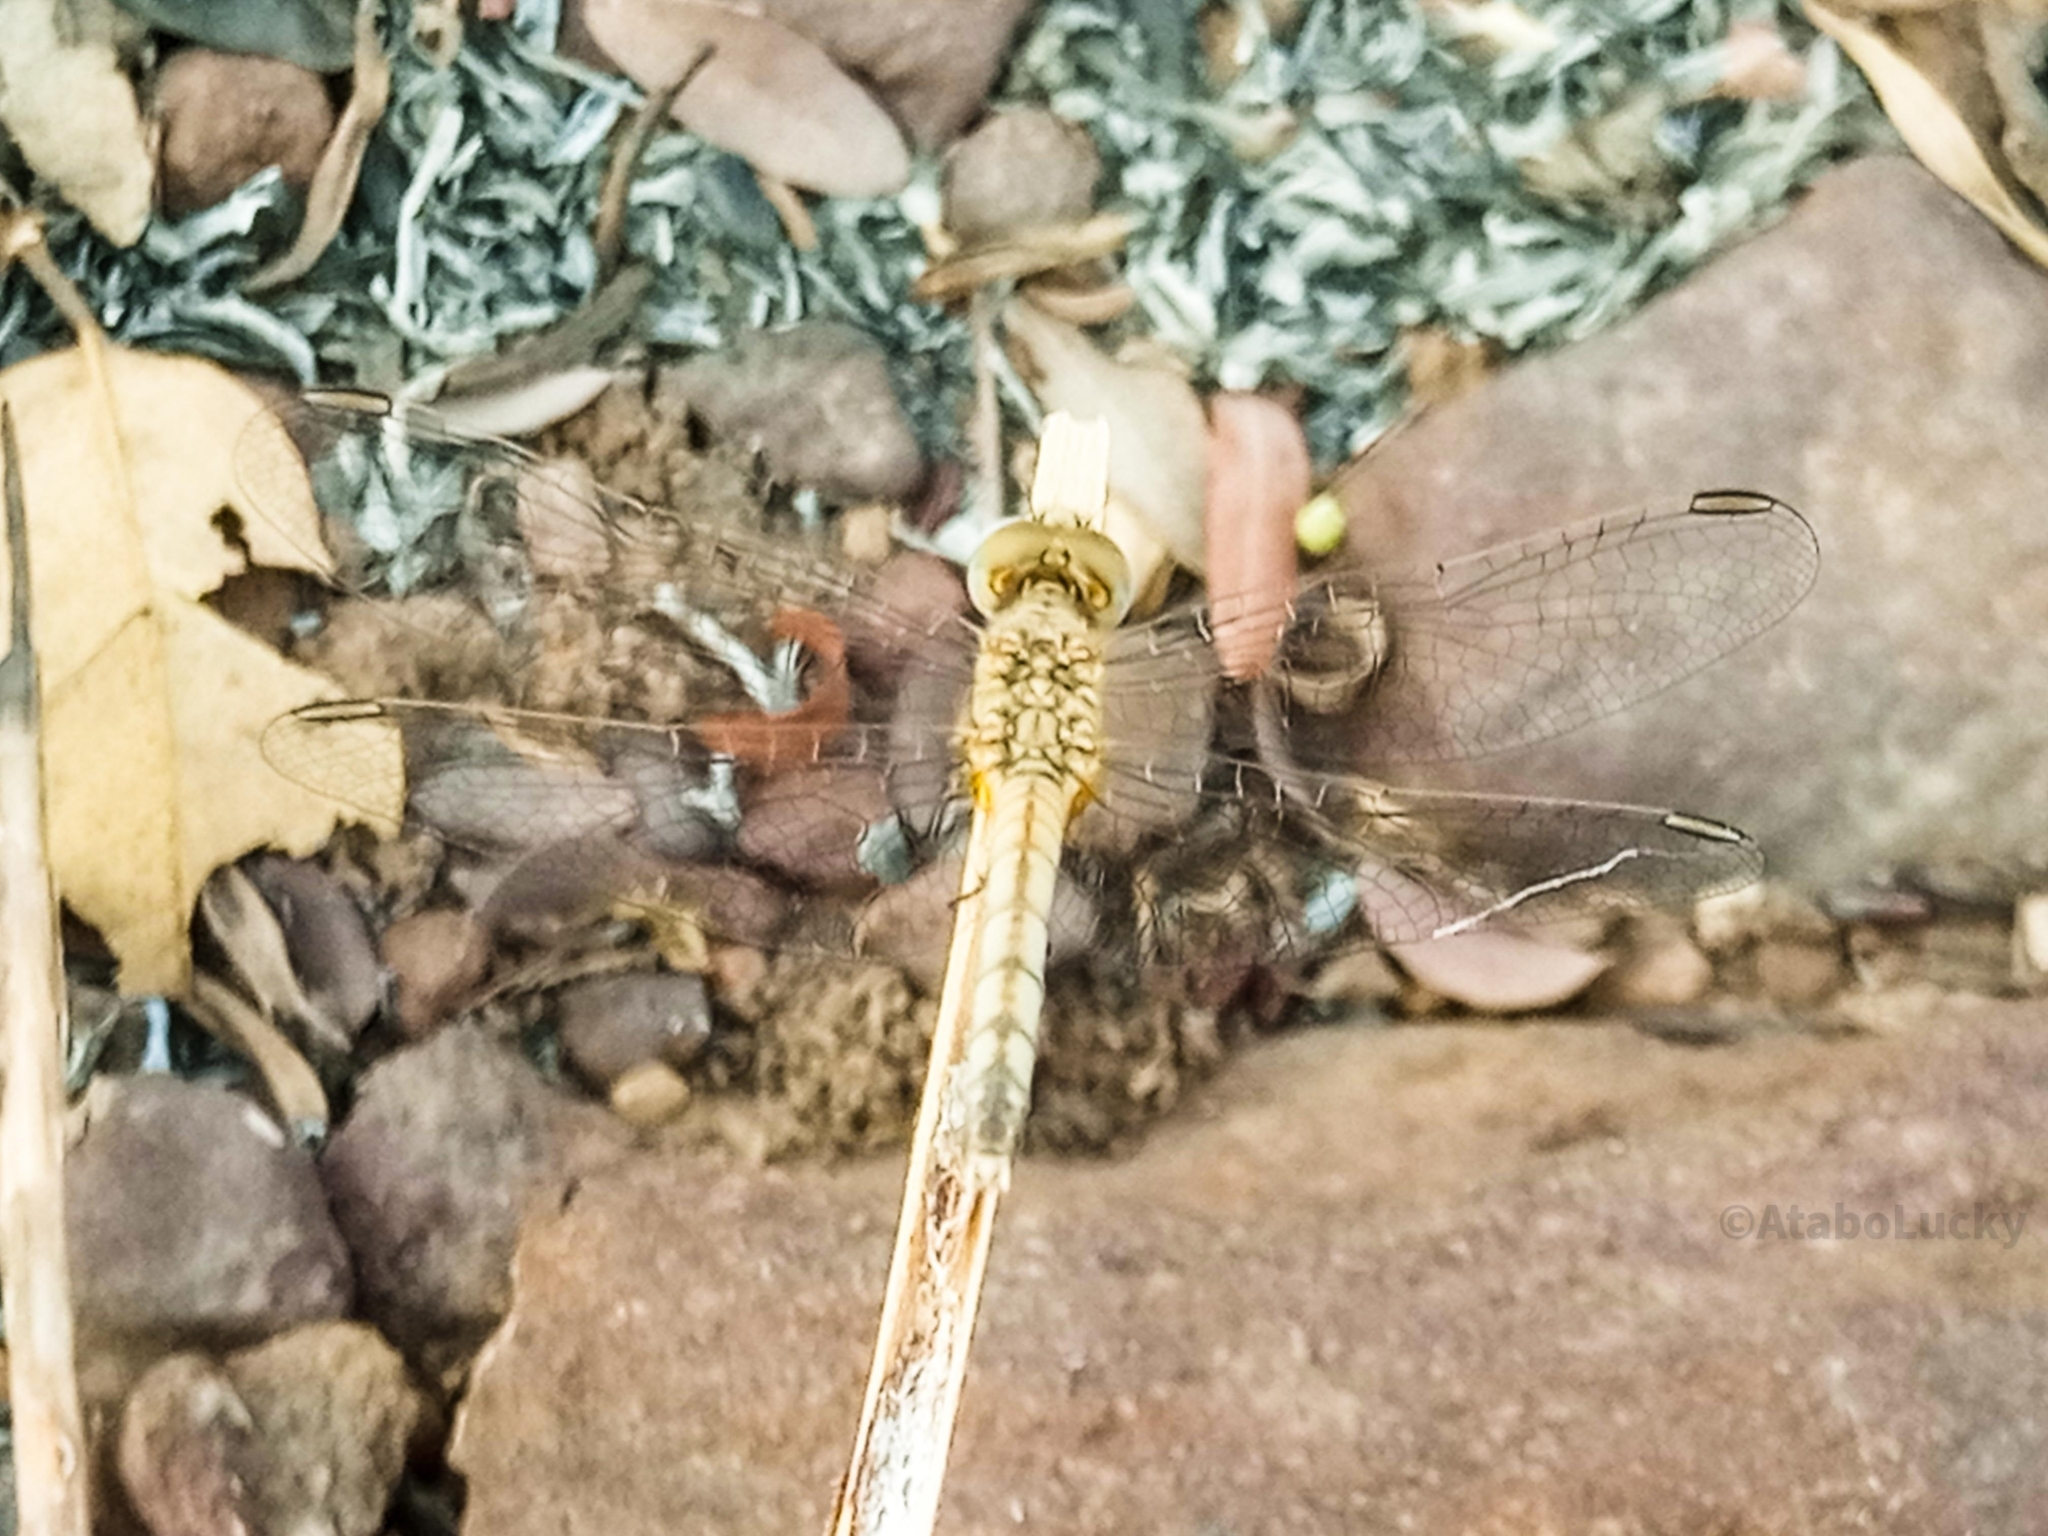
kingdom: Animalia
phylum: Arthropoda
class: Insecta
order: Odonata
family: Libellulidae
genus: Diplacodes
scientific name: Diplacodes lefebvrii
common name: Black percher
